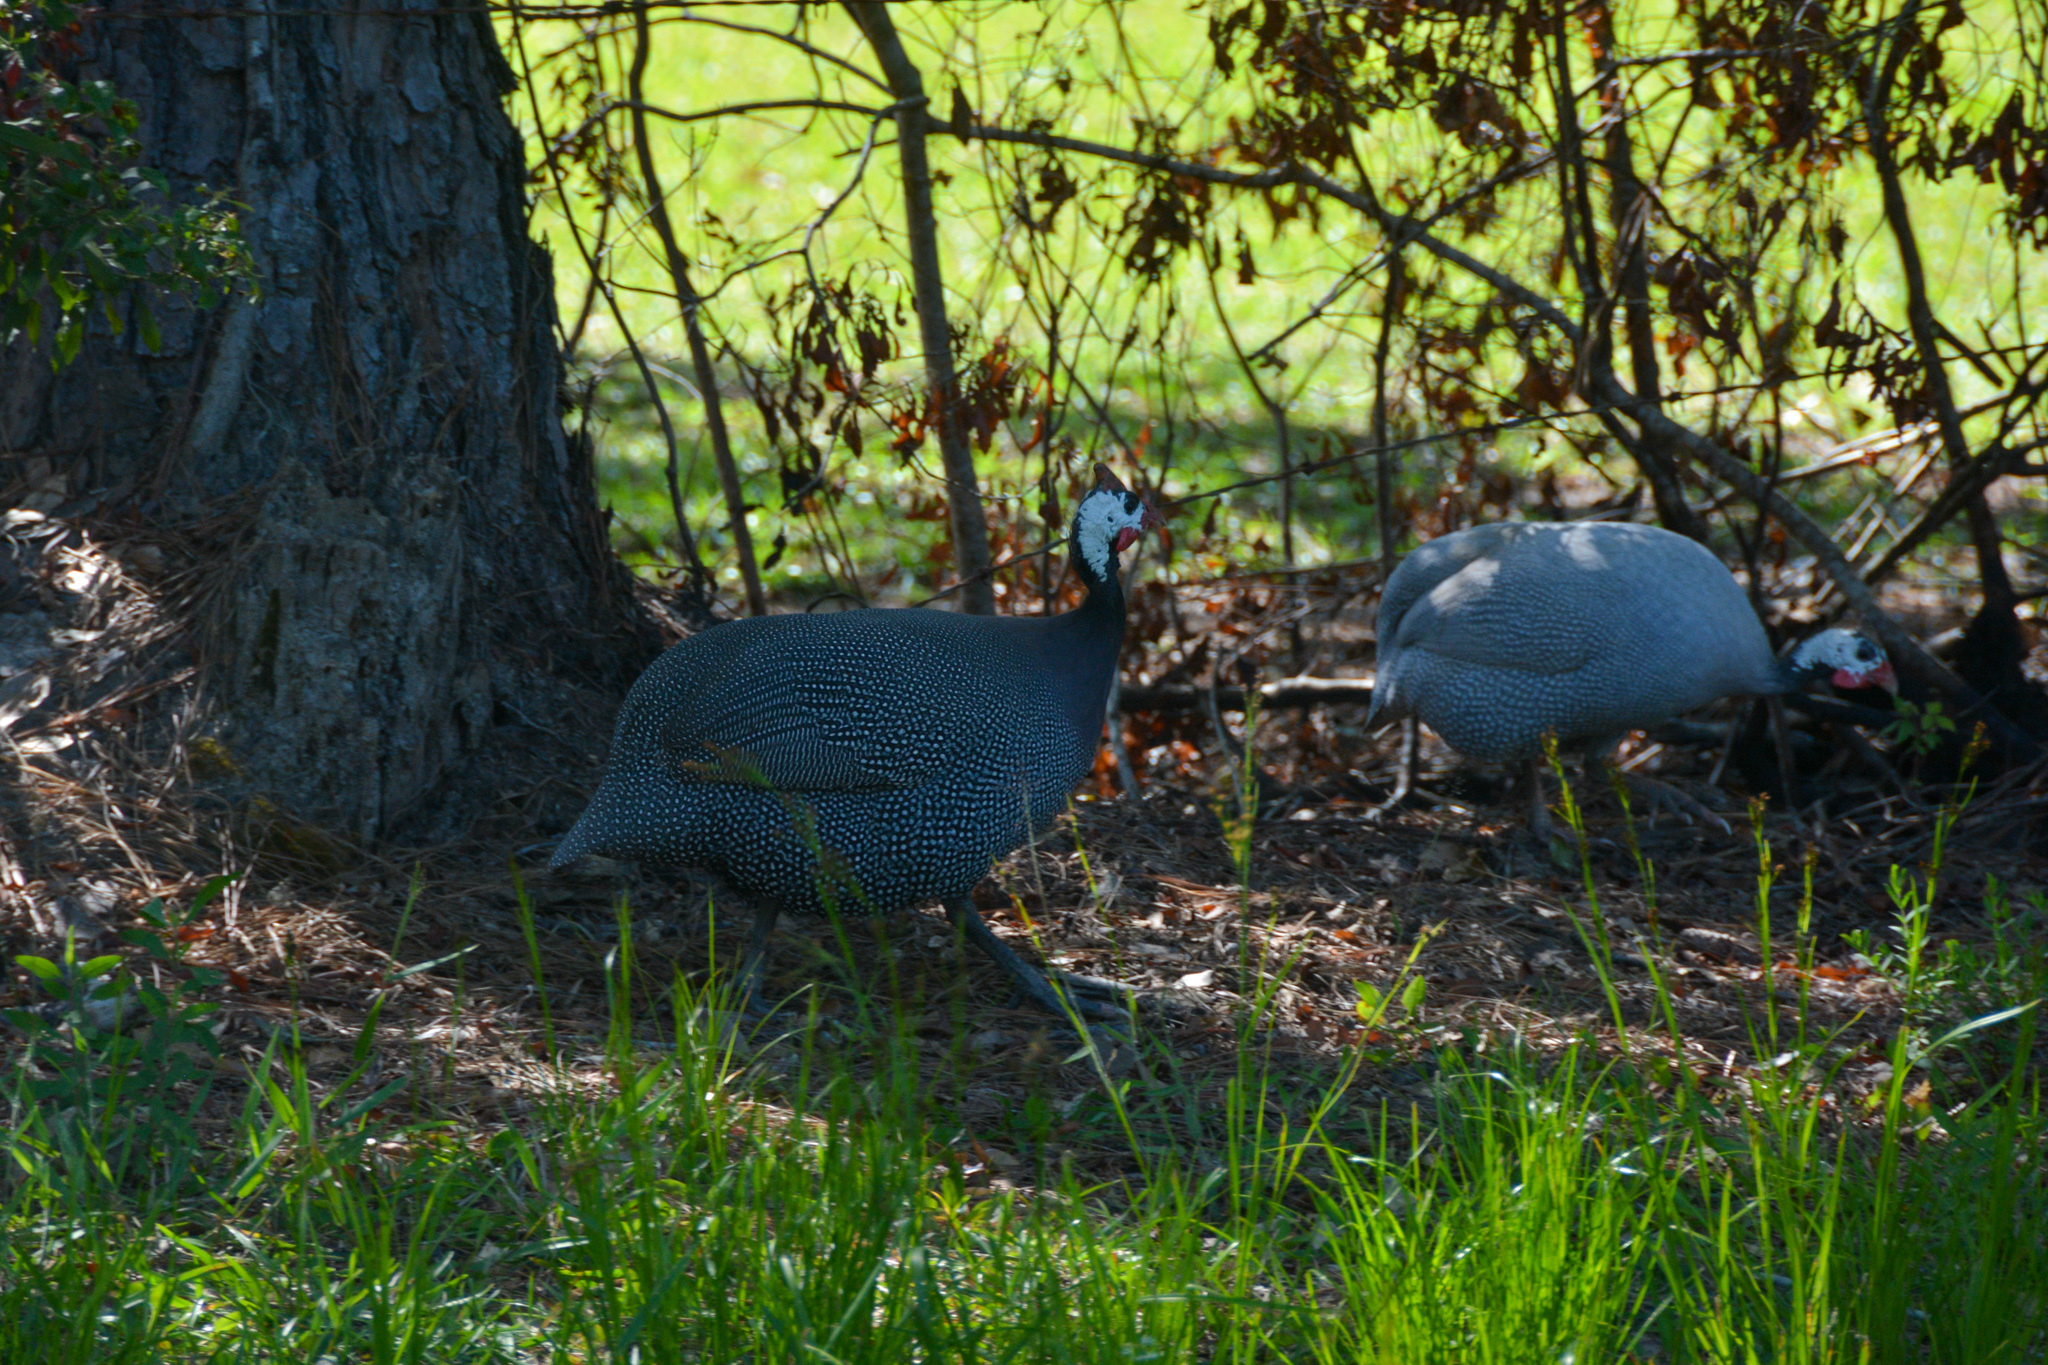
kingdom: Animalia
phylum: Chordata
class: Aves
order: Galliformes
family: Numididae
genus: Numida
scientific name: Numida meleagris
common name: Helmeted guineafowl
